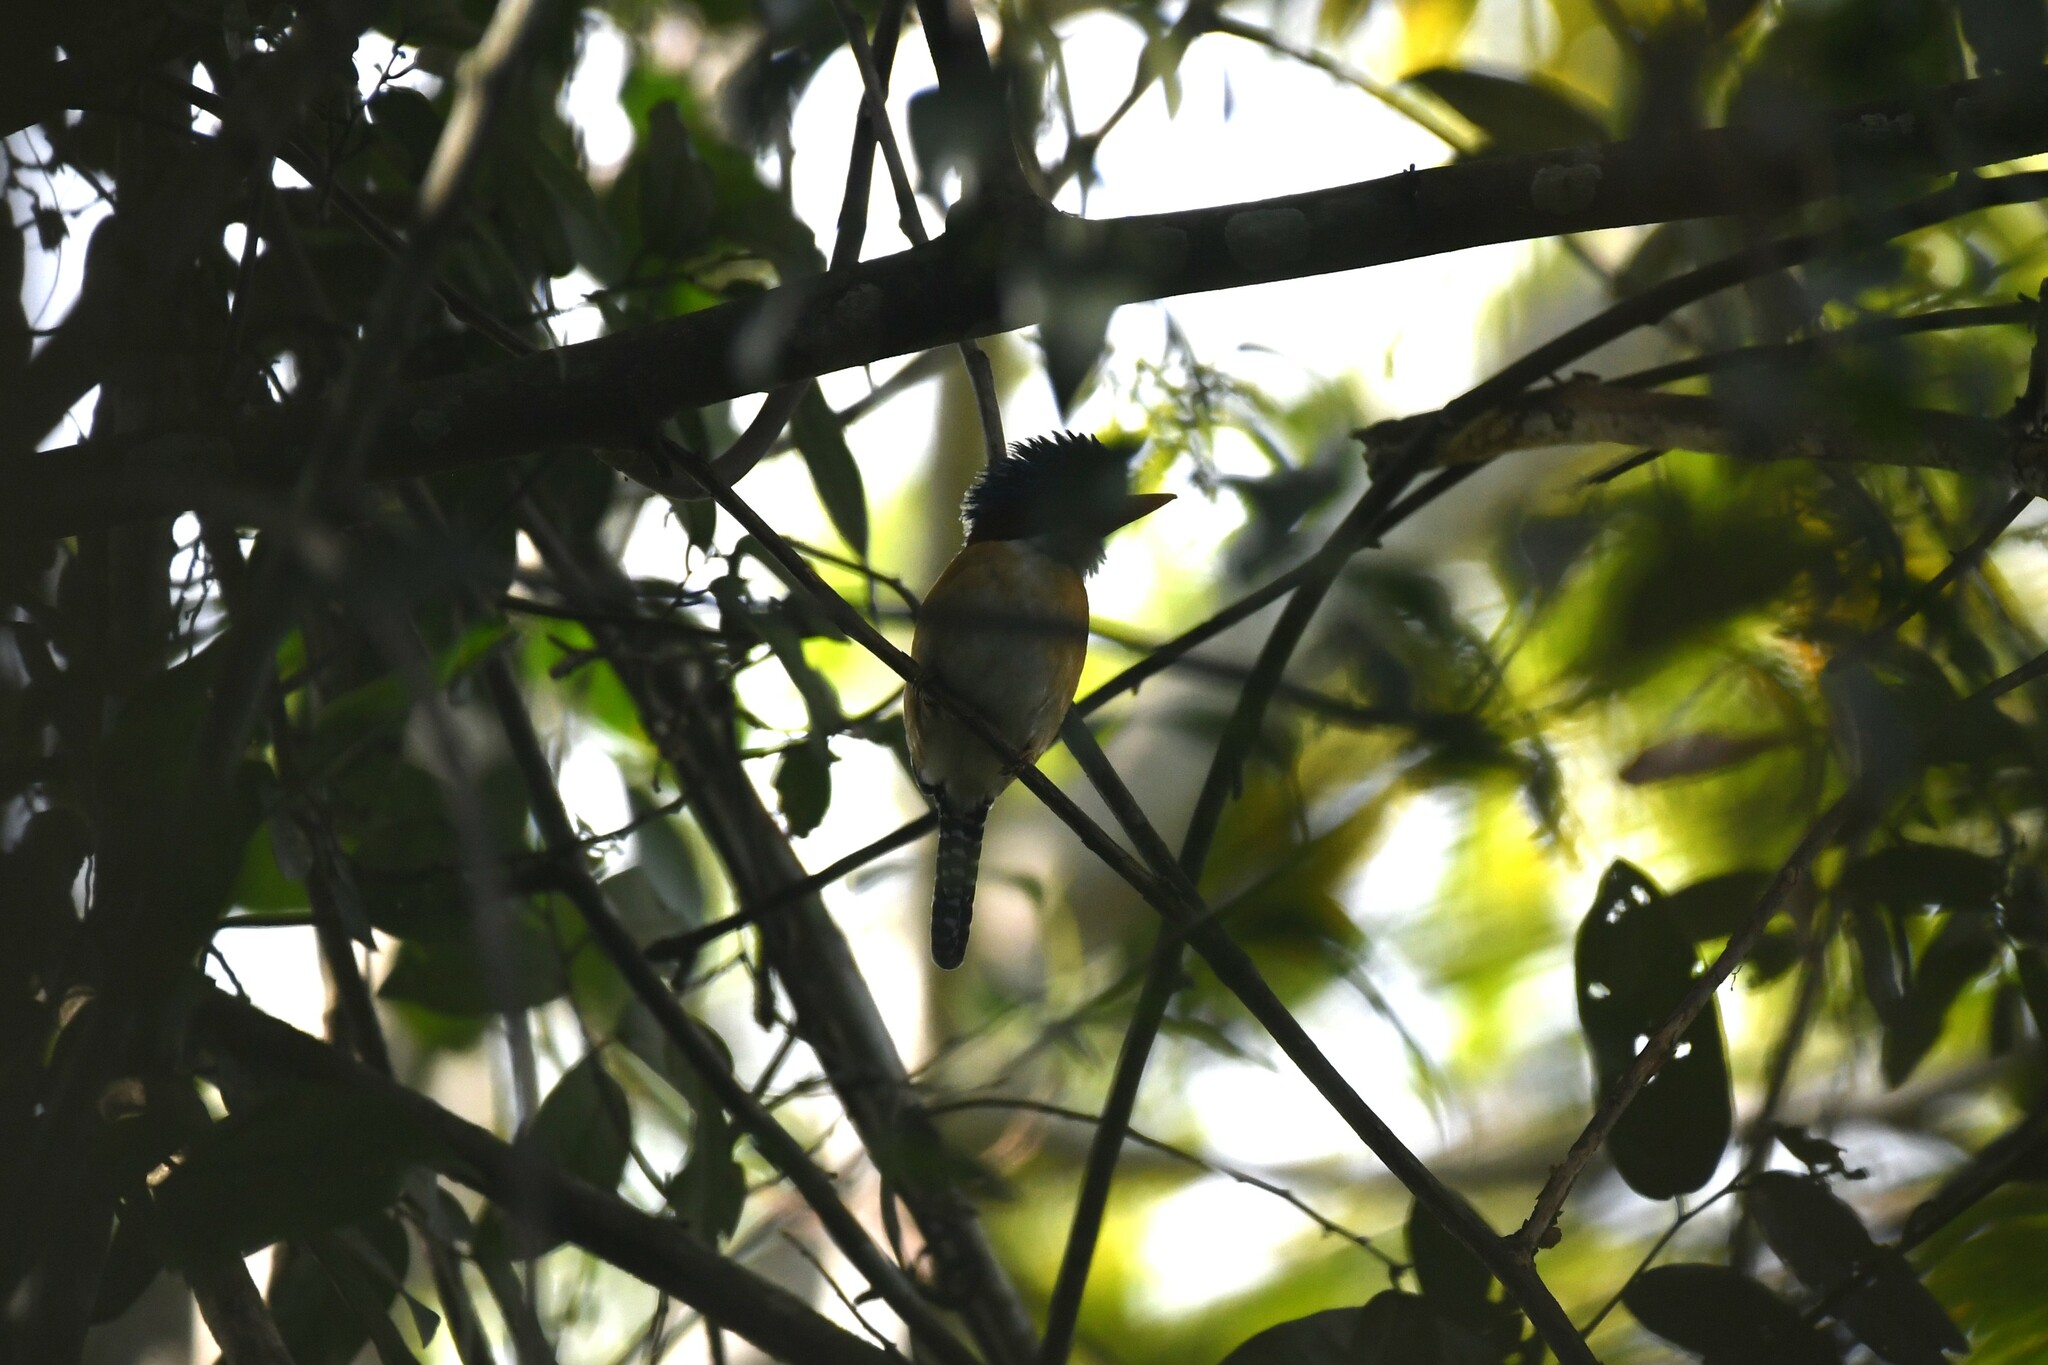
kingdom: Animalia
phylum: Chordata
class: Aves
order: Coraciiformes
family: Alcedinidae
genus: Lacedo
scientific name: Lacedo pulchella
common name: Banded kingfisher
